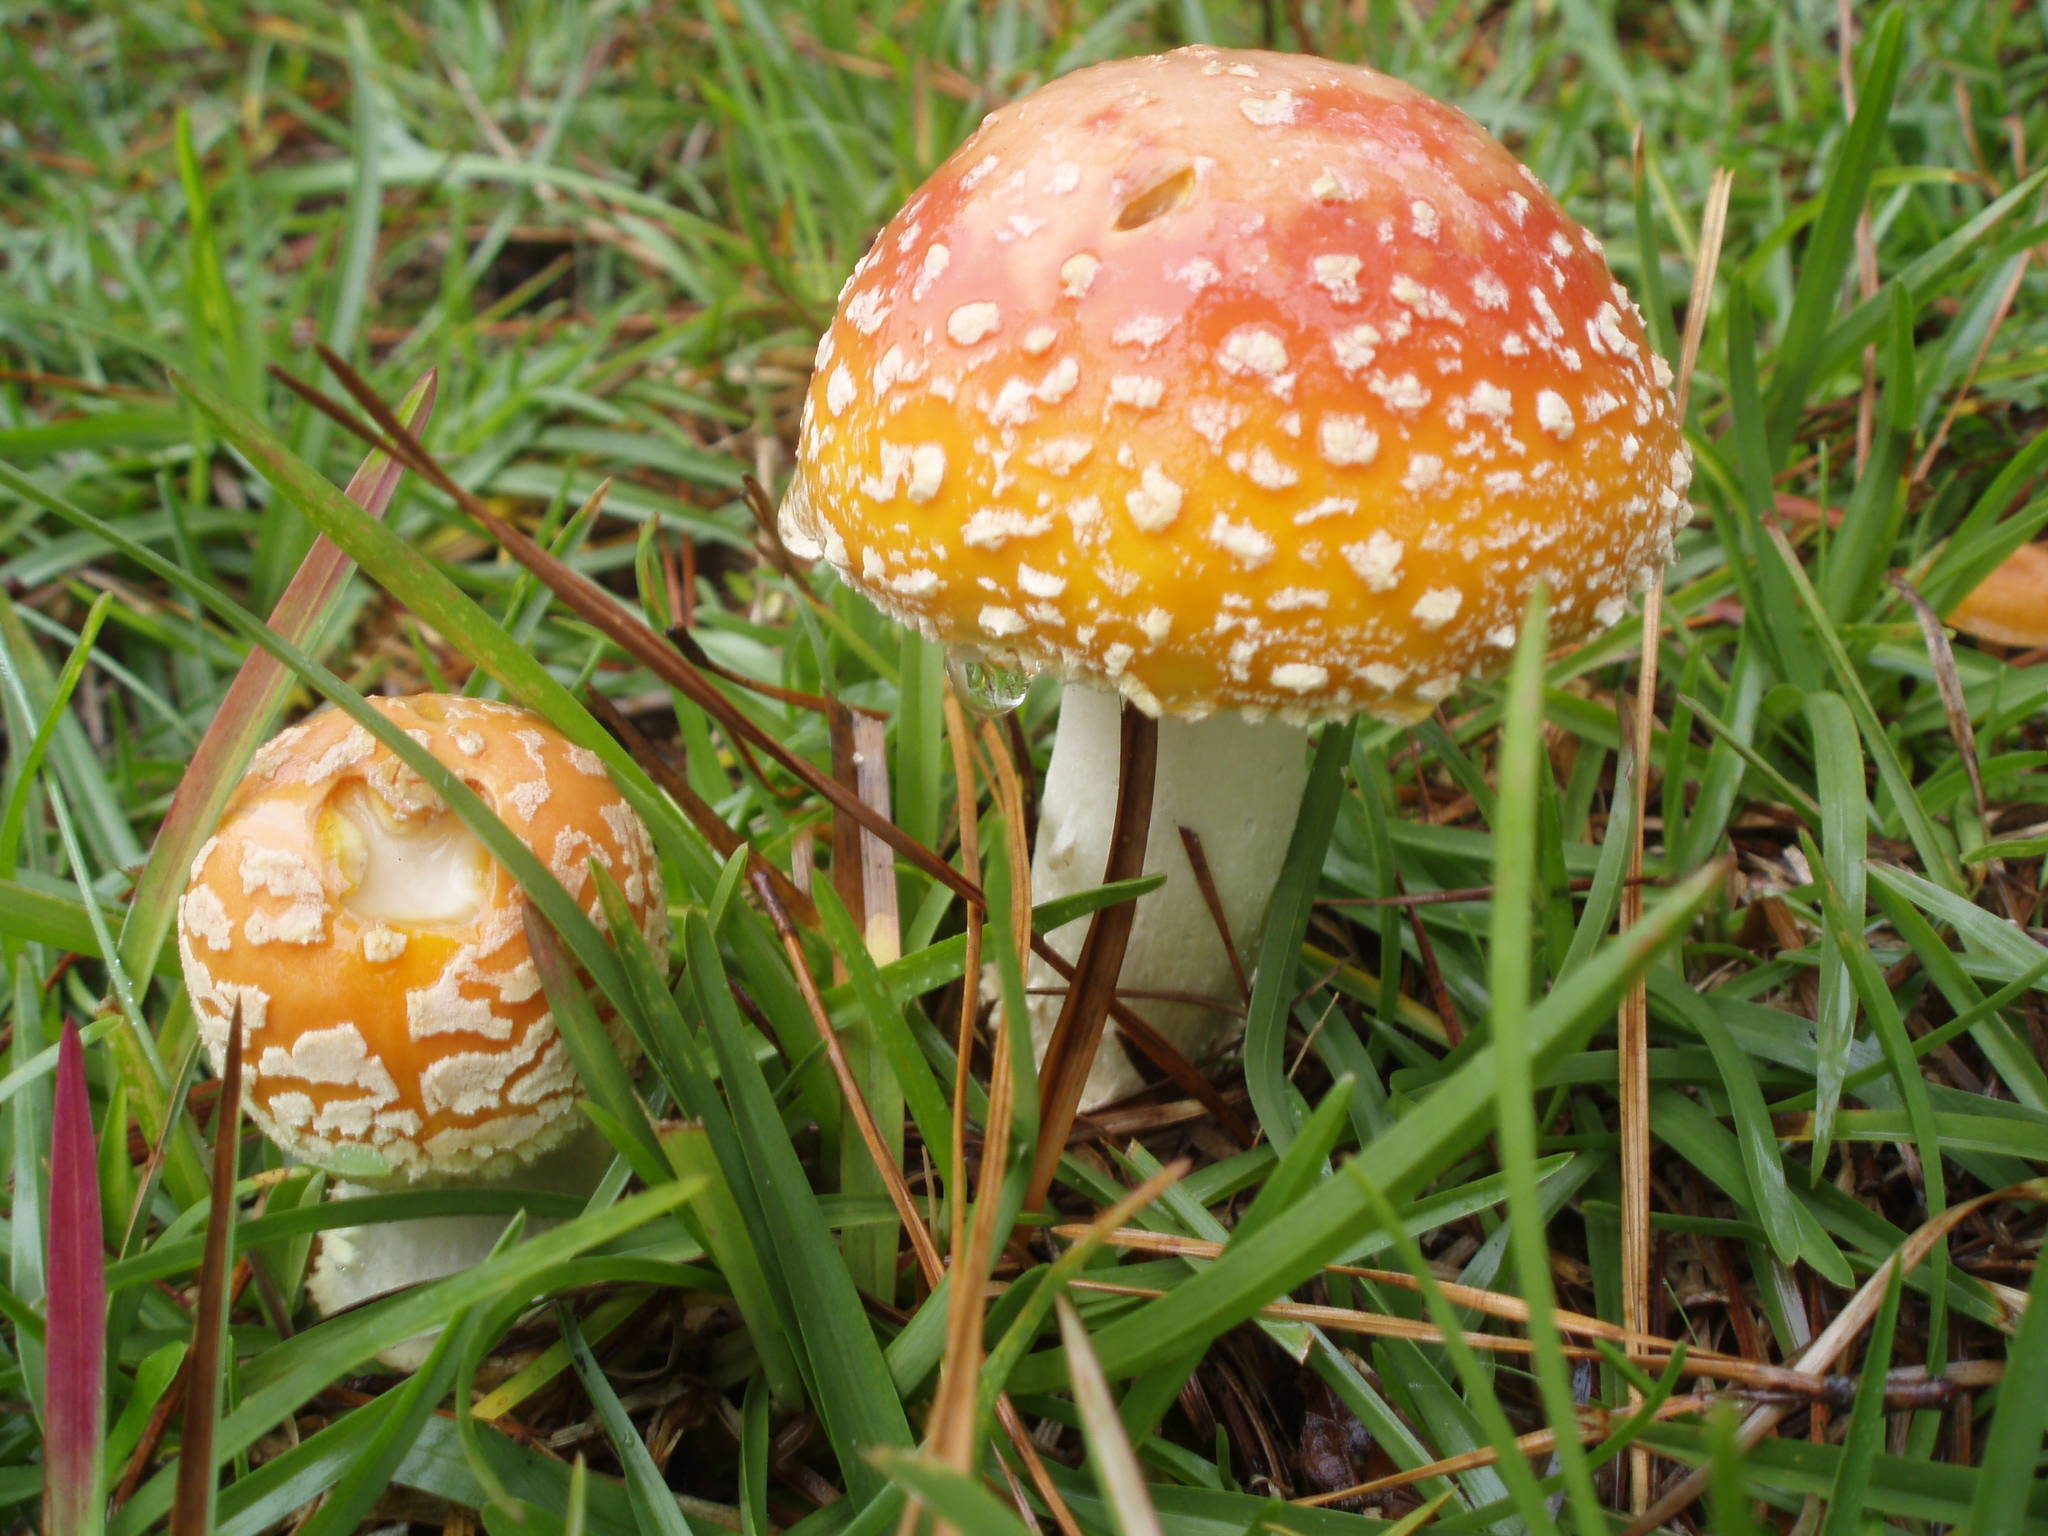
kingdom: Fungi
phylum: Basidiomycota
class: Agaricomycetes
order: Agaricales
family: Amanitaceae
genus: Amanita
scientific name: Amanita persicina
